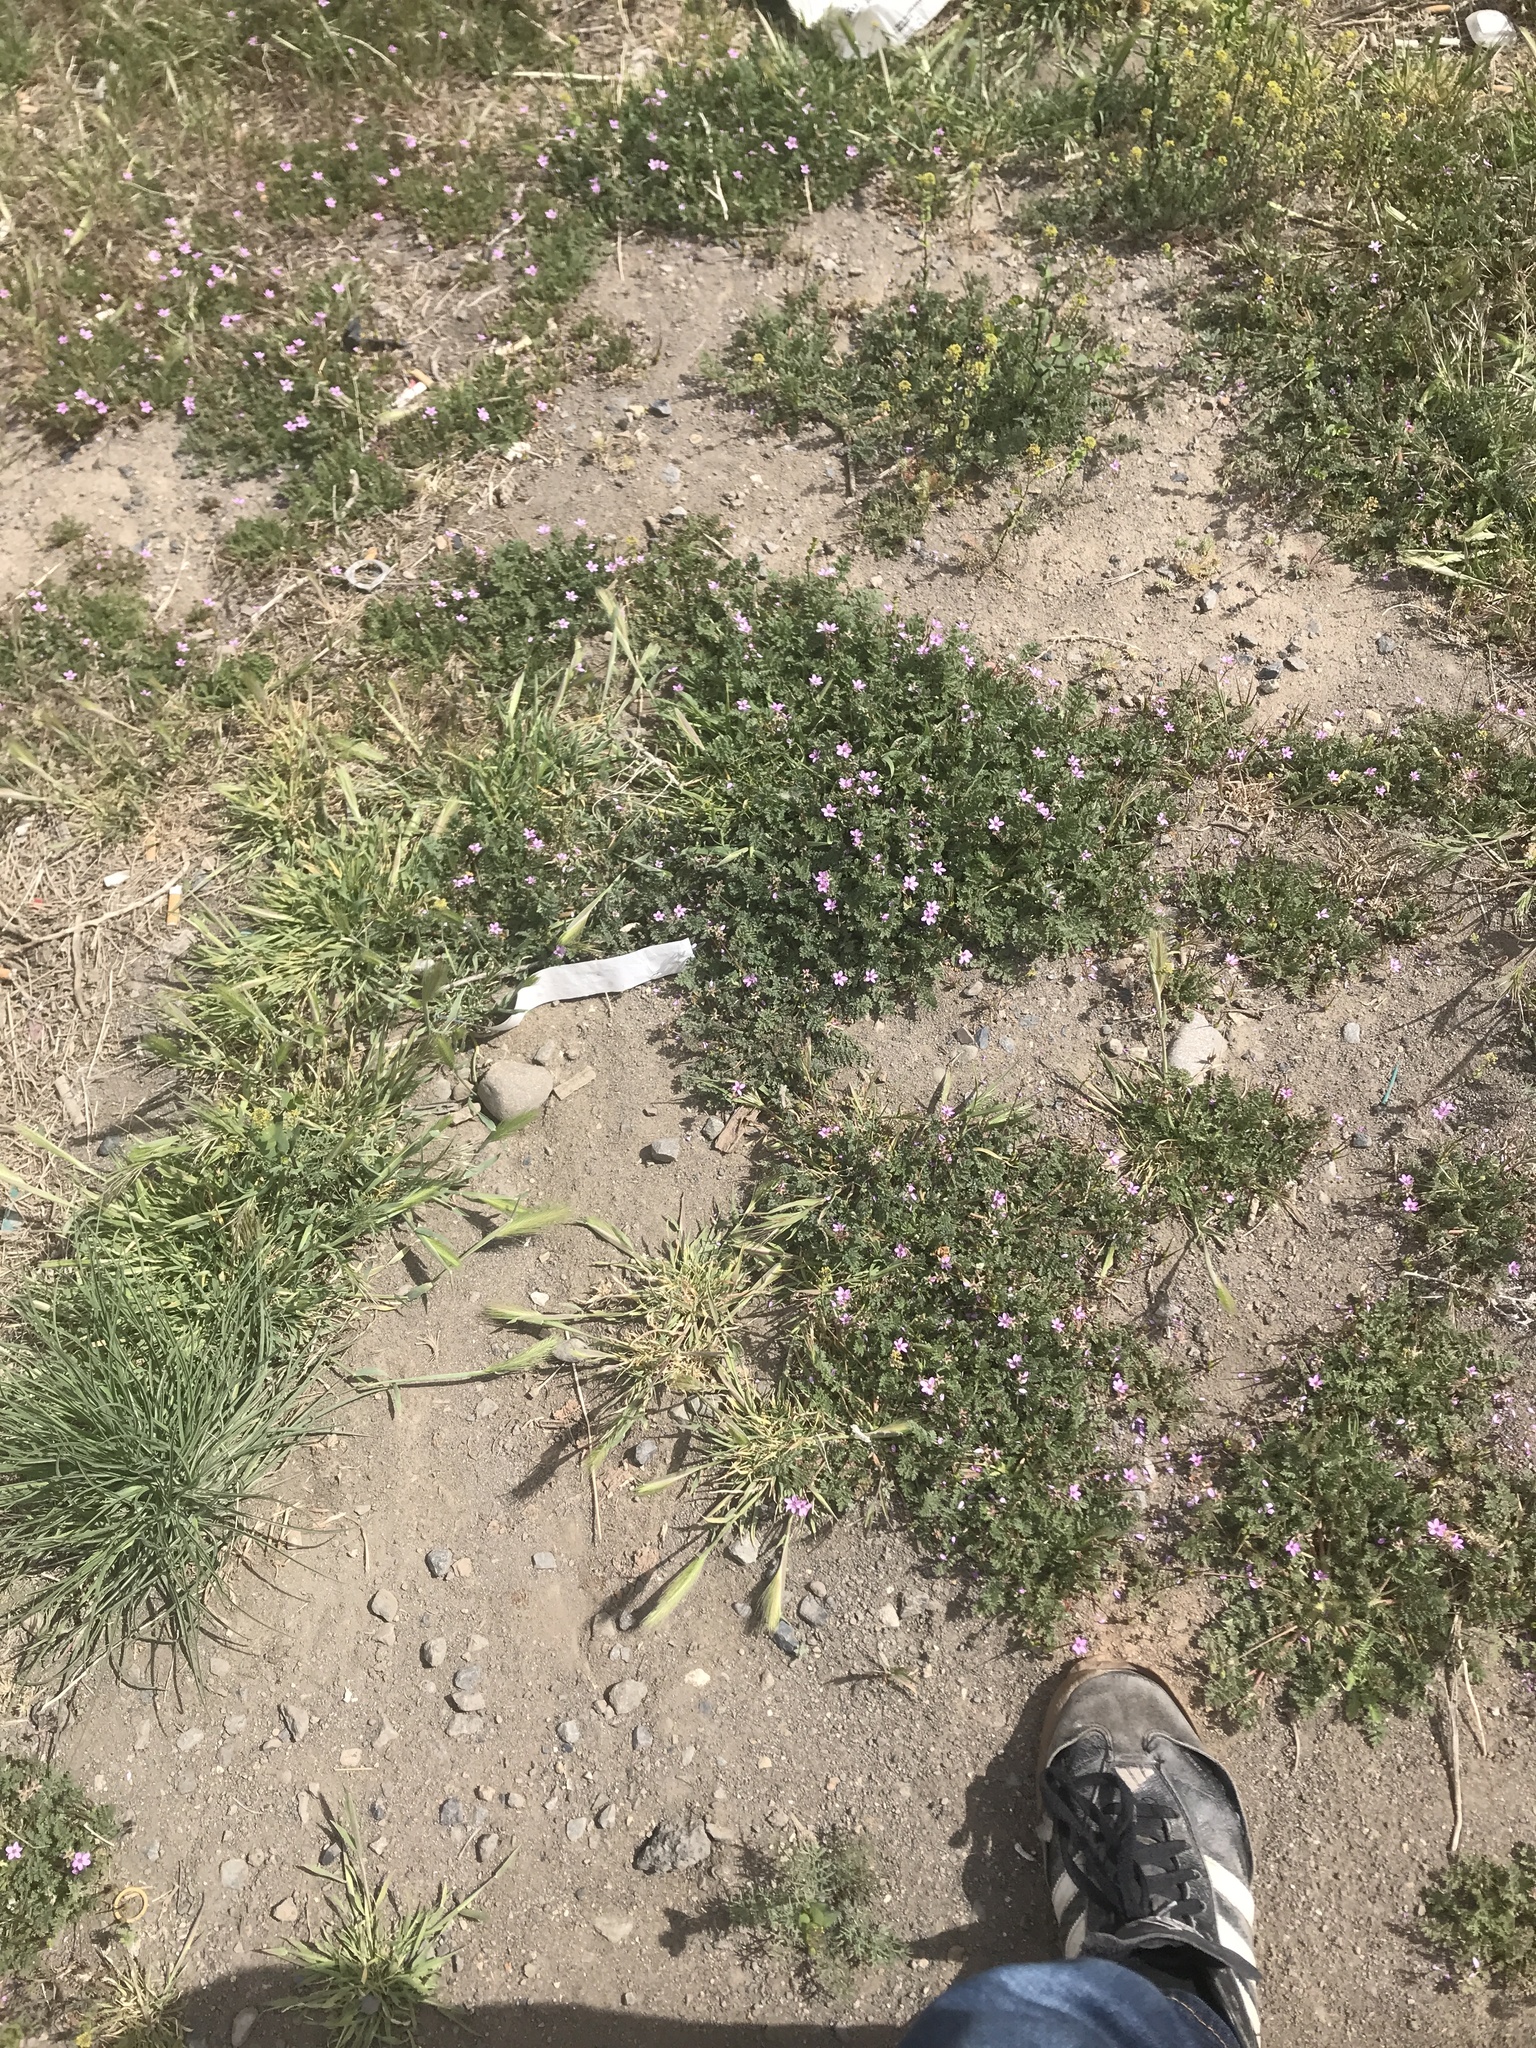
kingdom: Plantae
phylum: Tracheophyta
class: Magnoliopsida
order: Geraniales
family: Geraniaceae
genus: Erodium
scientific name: Erodium cicutarium
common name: Common stork's-bill
